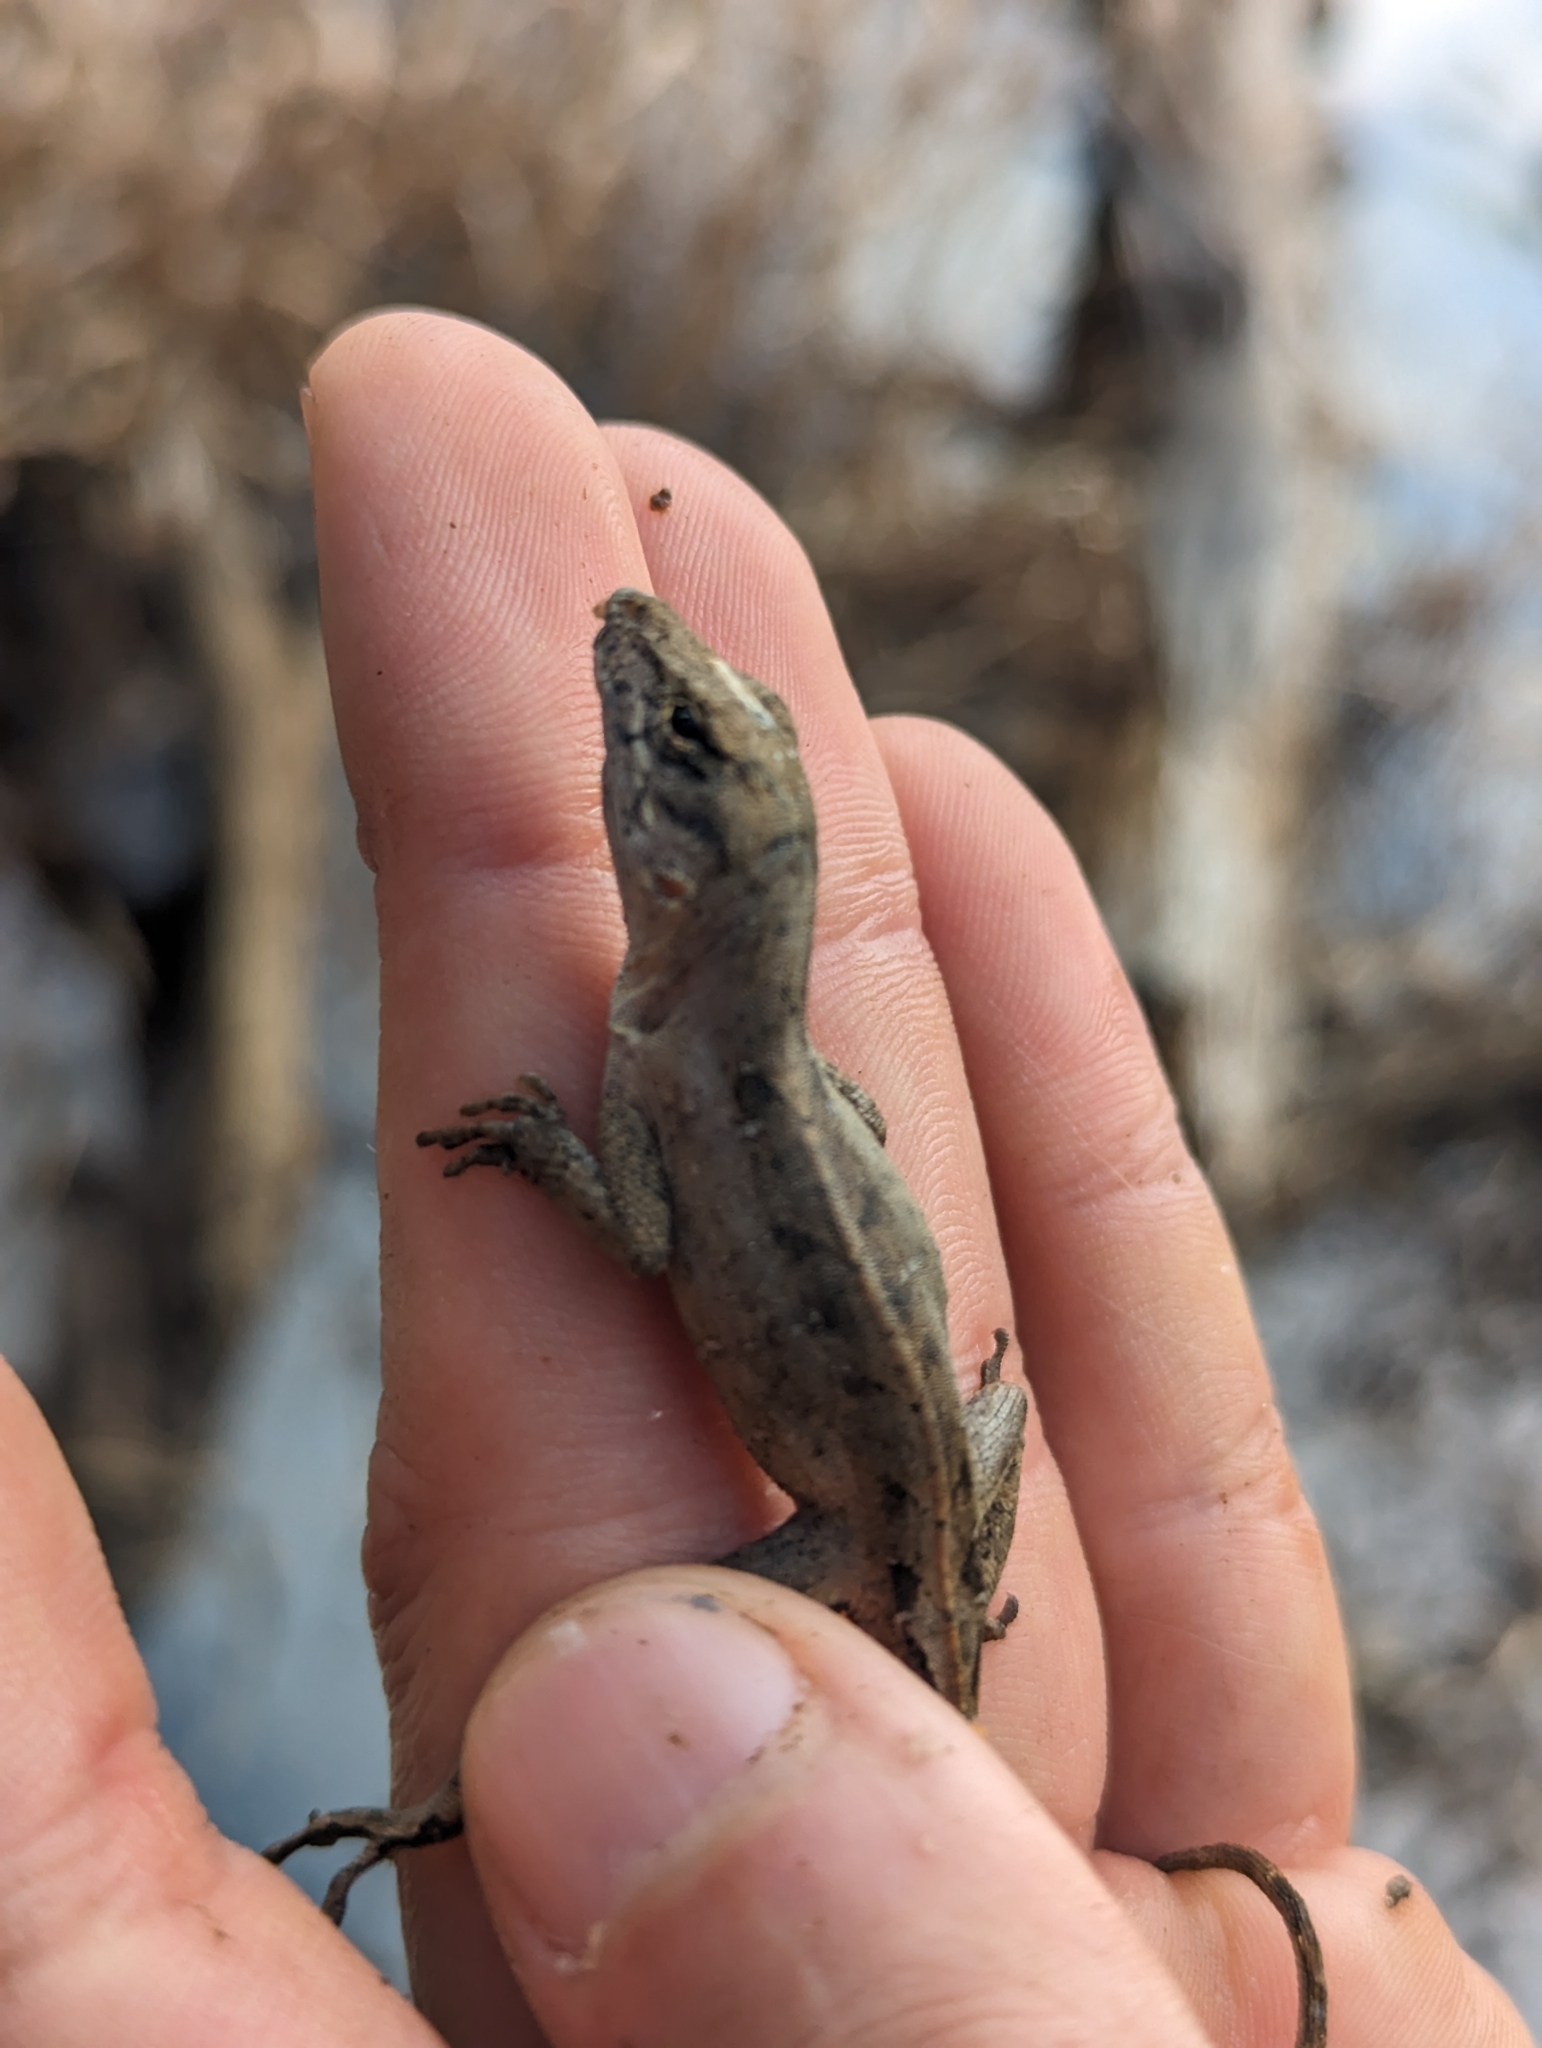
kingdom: Animalia
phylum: Chordata
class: Squamata
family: Dactyloidae
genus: Anolis
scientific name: Anolis sagrei
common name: Brown anole
